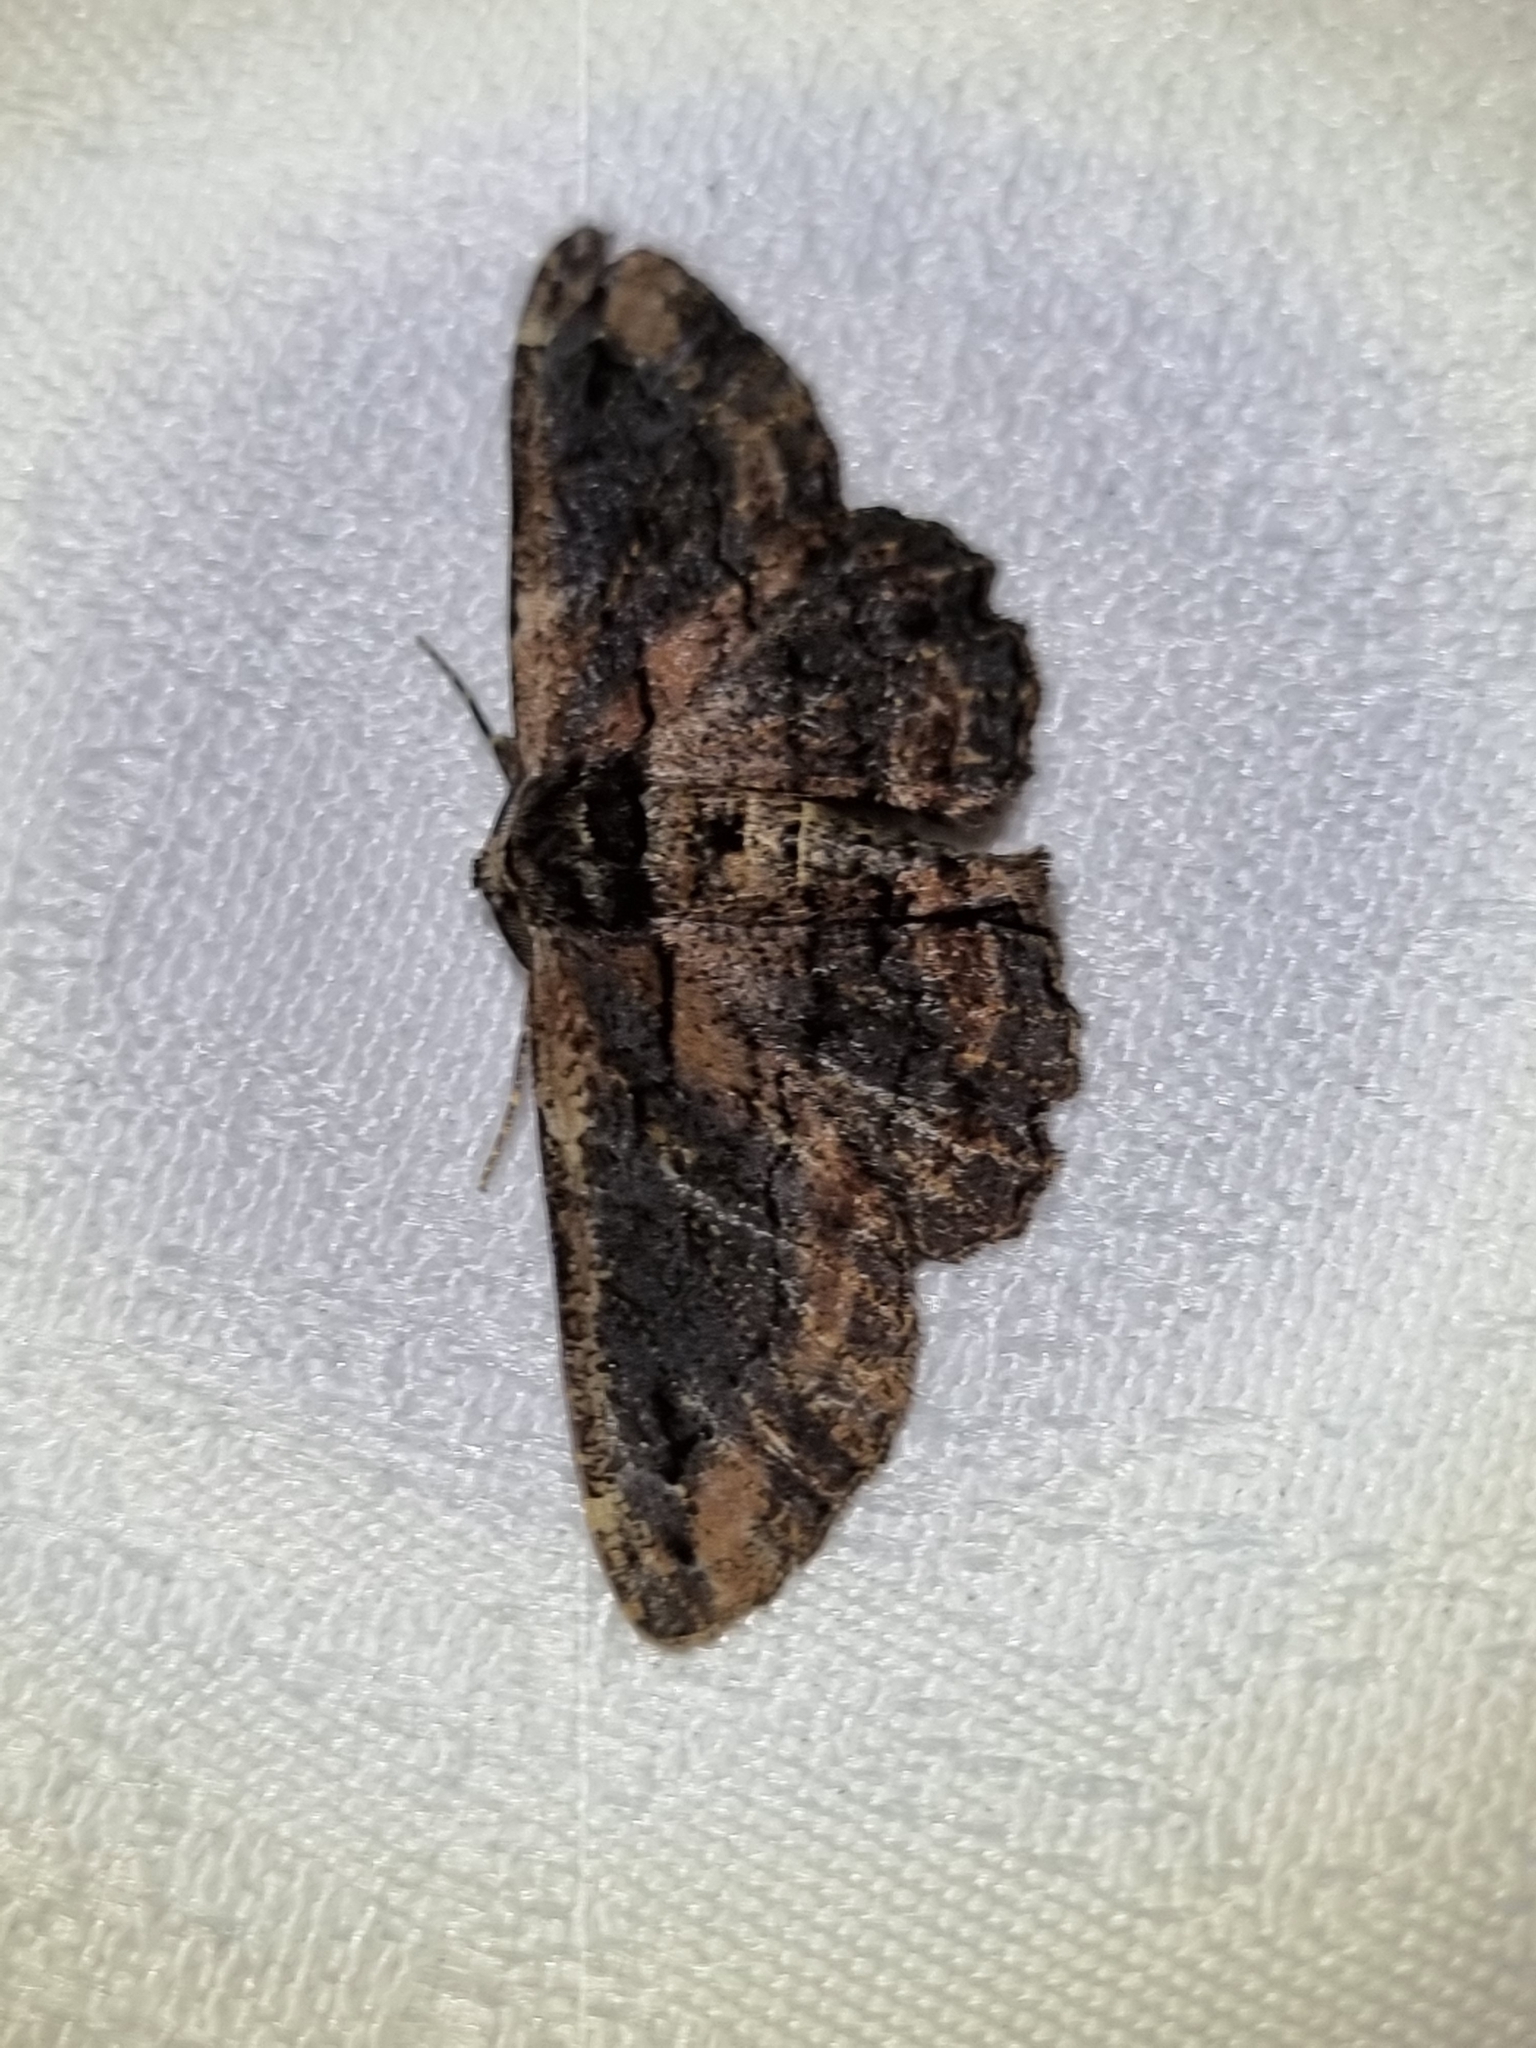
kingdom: Animalia
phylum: Arthropoda
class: Insecta
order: Lepidoptera
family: Geometridae
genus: Pholodes
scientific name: Pholodes sinistraria
